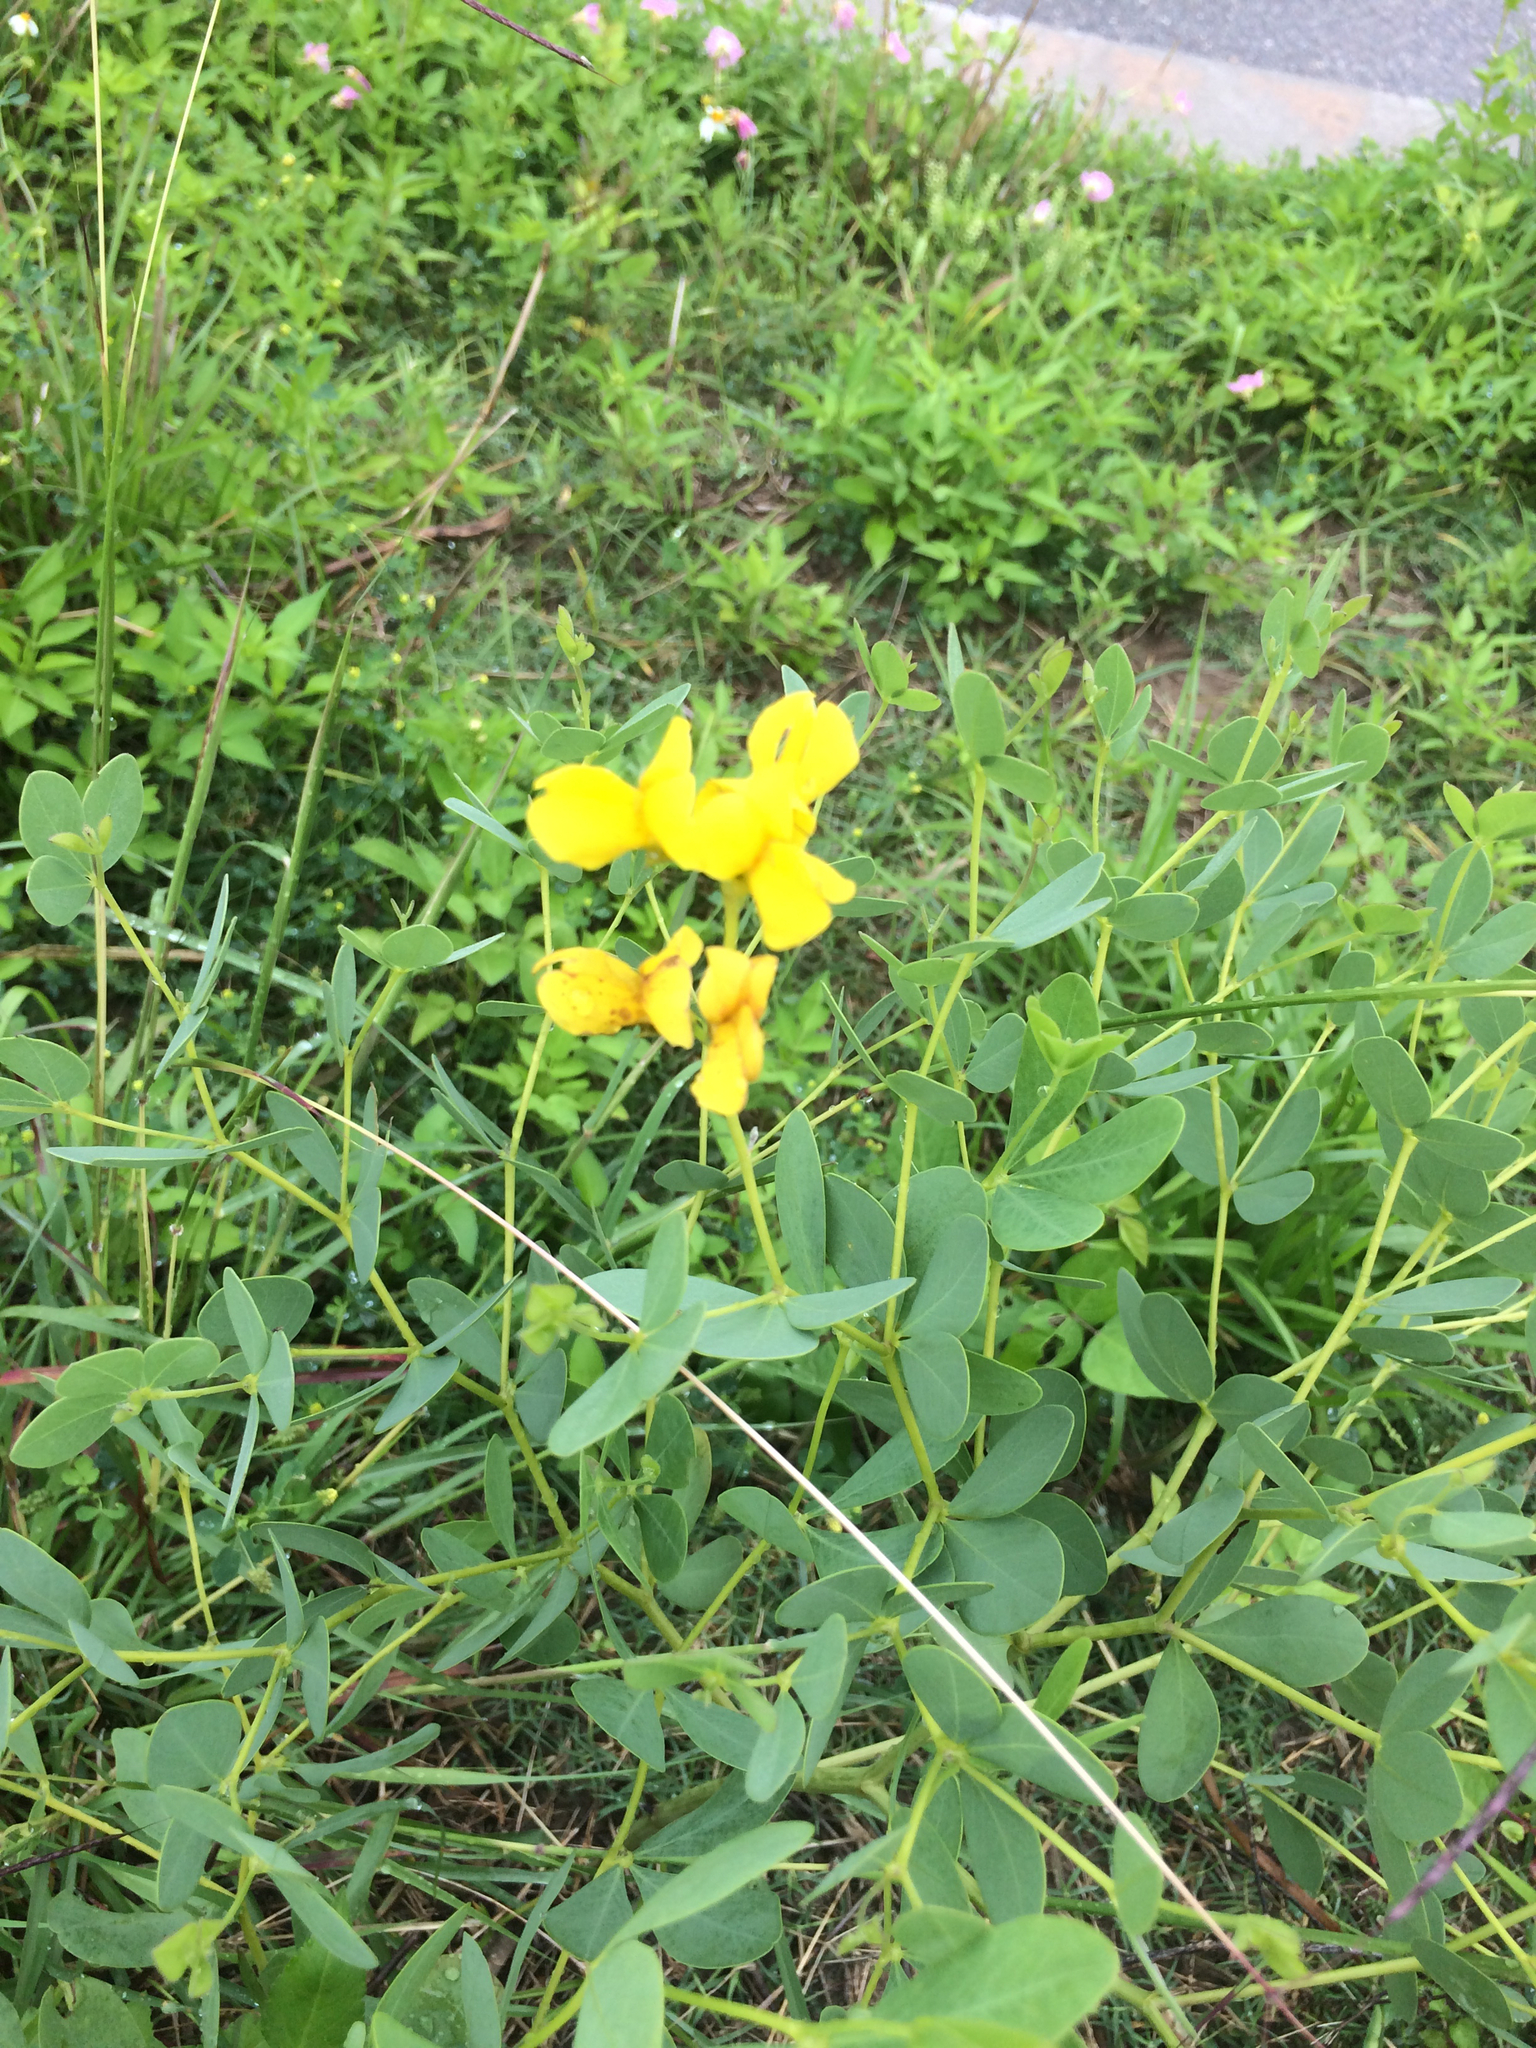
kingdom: Plantae
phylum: Tracheophyta
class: Magnoliopsida
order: Fabales
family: Fabaceae
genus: Baptisia
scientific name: Baptisia sphaerocarpa
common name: Round wild indigo
